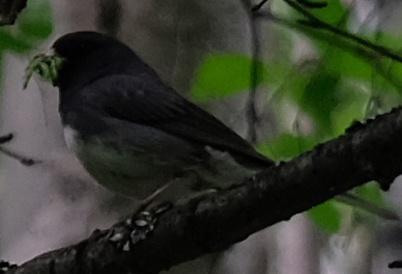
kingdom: Animalia
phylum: Chordata
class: Aves
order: Passeriformes
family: Passerellidae
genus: Junco
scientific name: Junco hyemalis
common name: Dark-eyed junco
